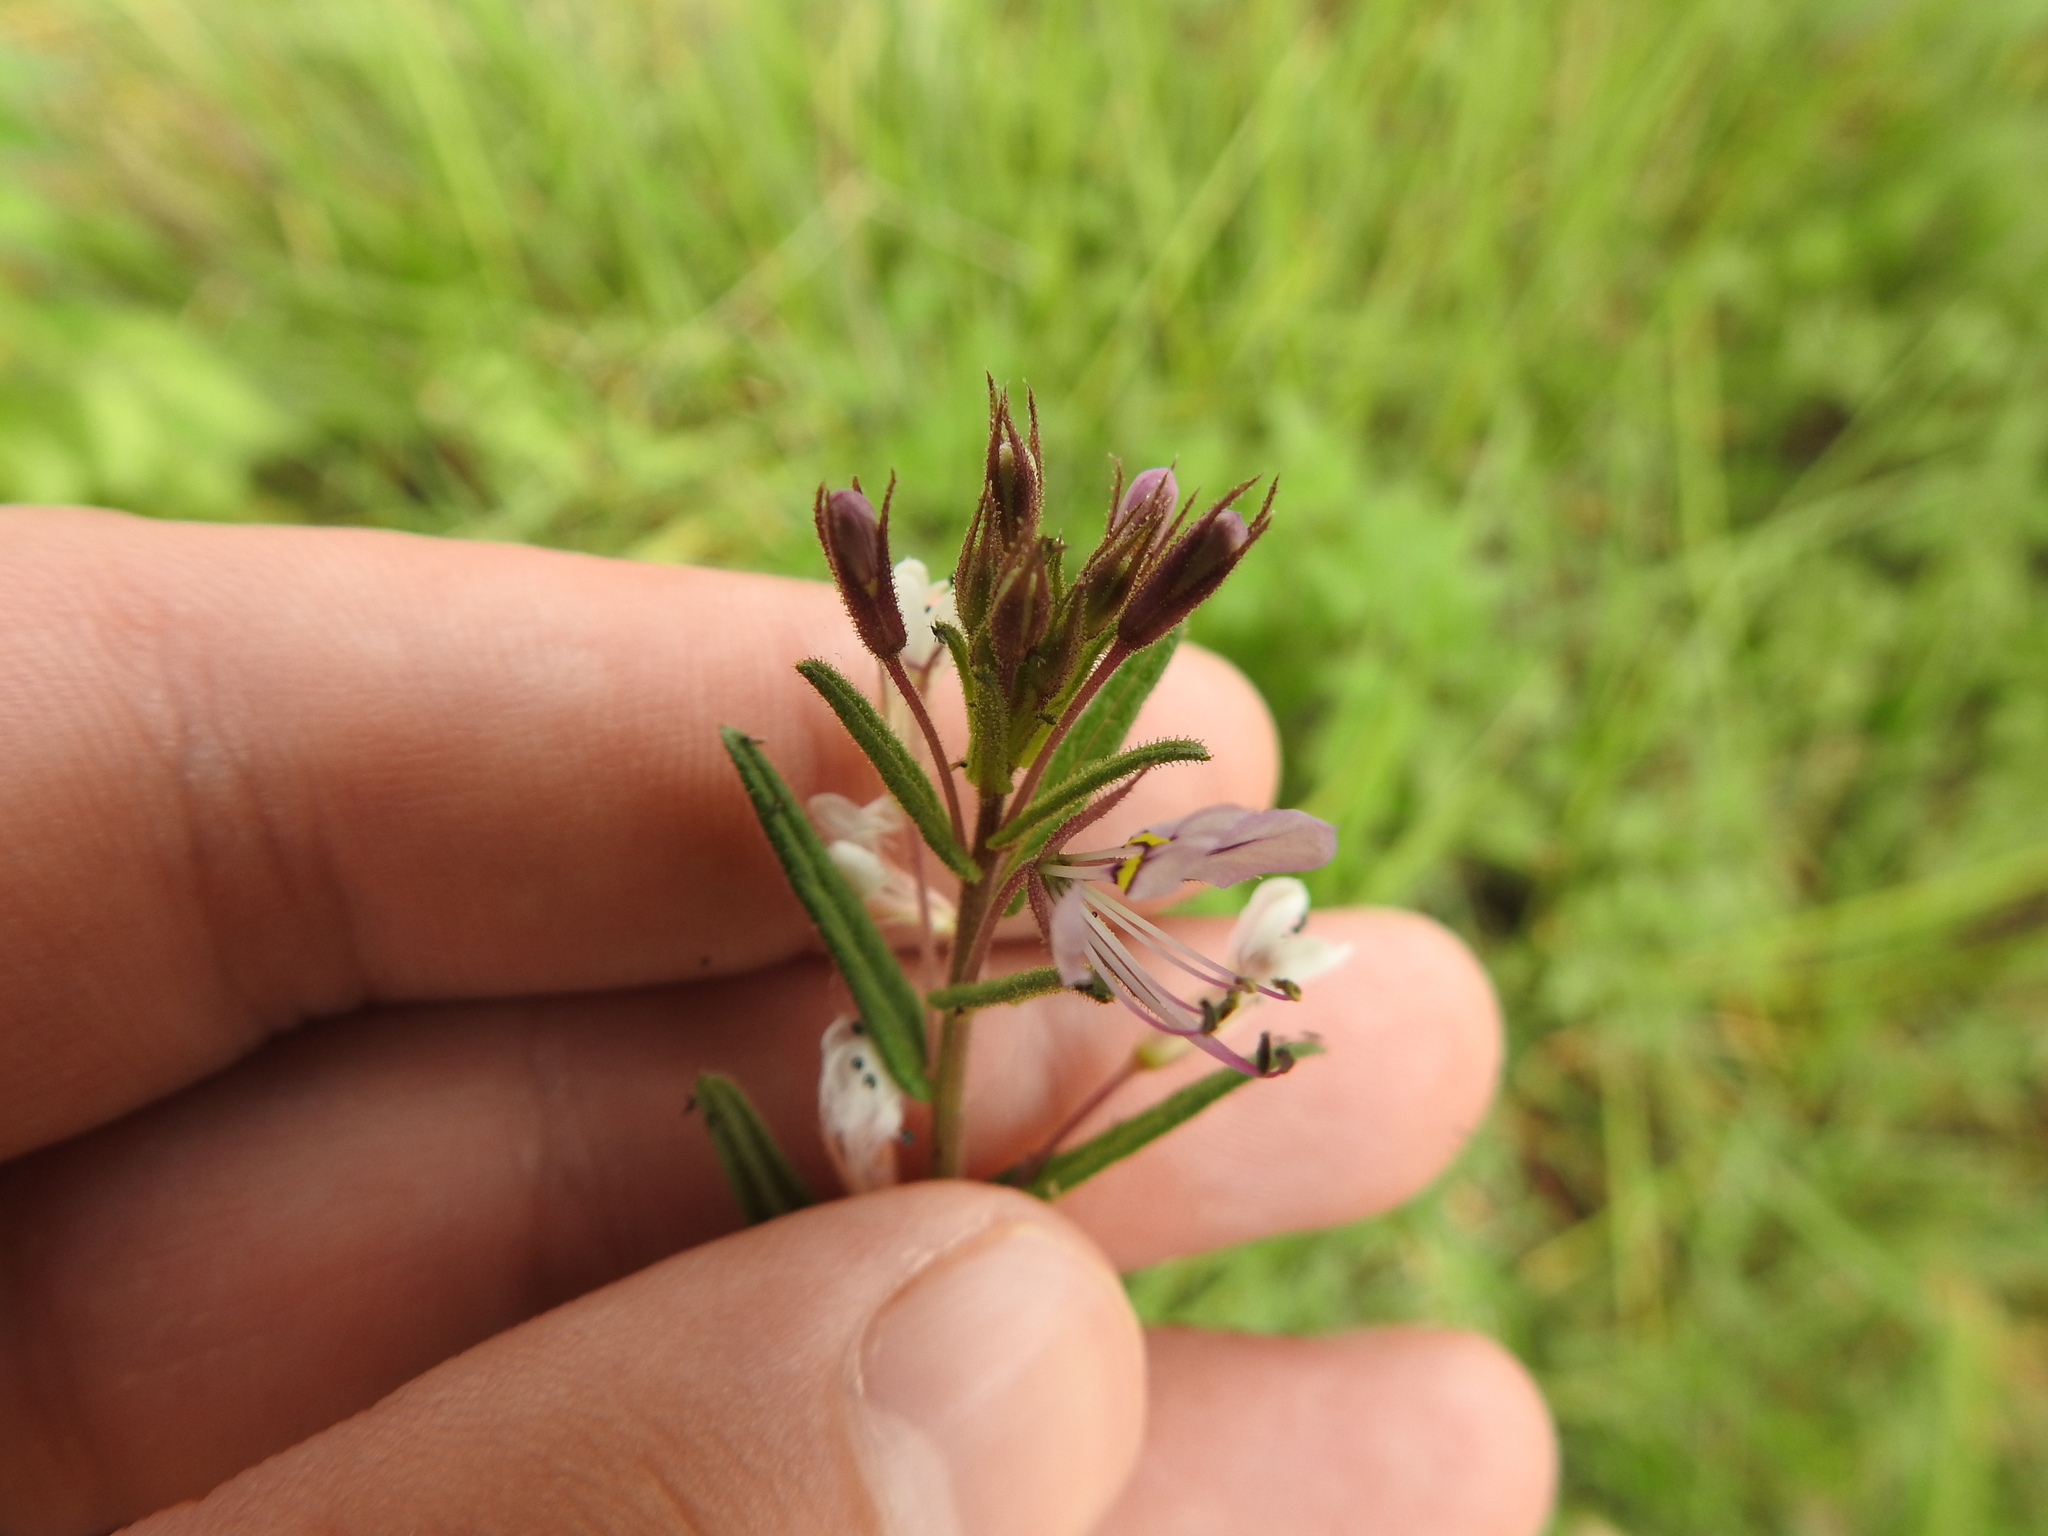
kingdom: Plantae
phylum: Tracheophyta
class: Magnoliopsida
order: Brassicales
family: Cleomaceae
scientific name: Cleomaceae
